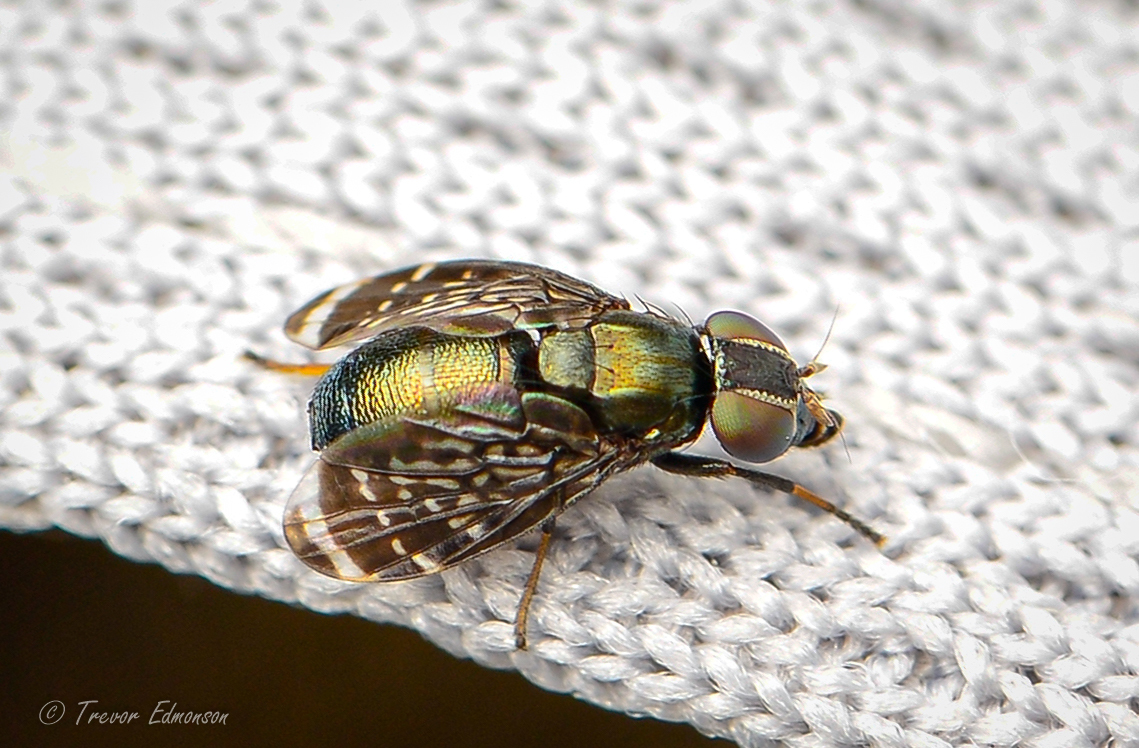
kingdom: Animalia
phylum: Arthropoda
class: Insecta
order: Diptera
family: Platystomatidae
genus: Amphicnephes
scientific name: Amphicnephes pullus
